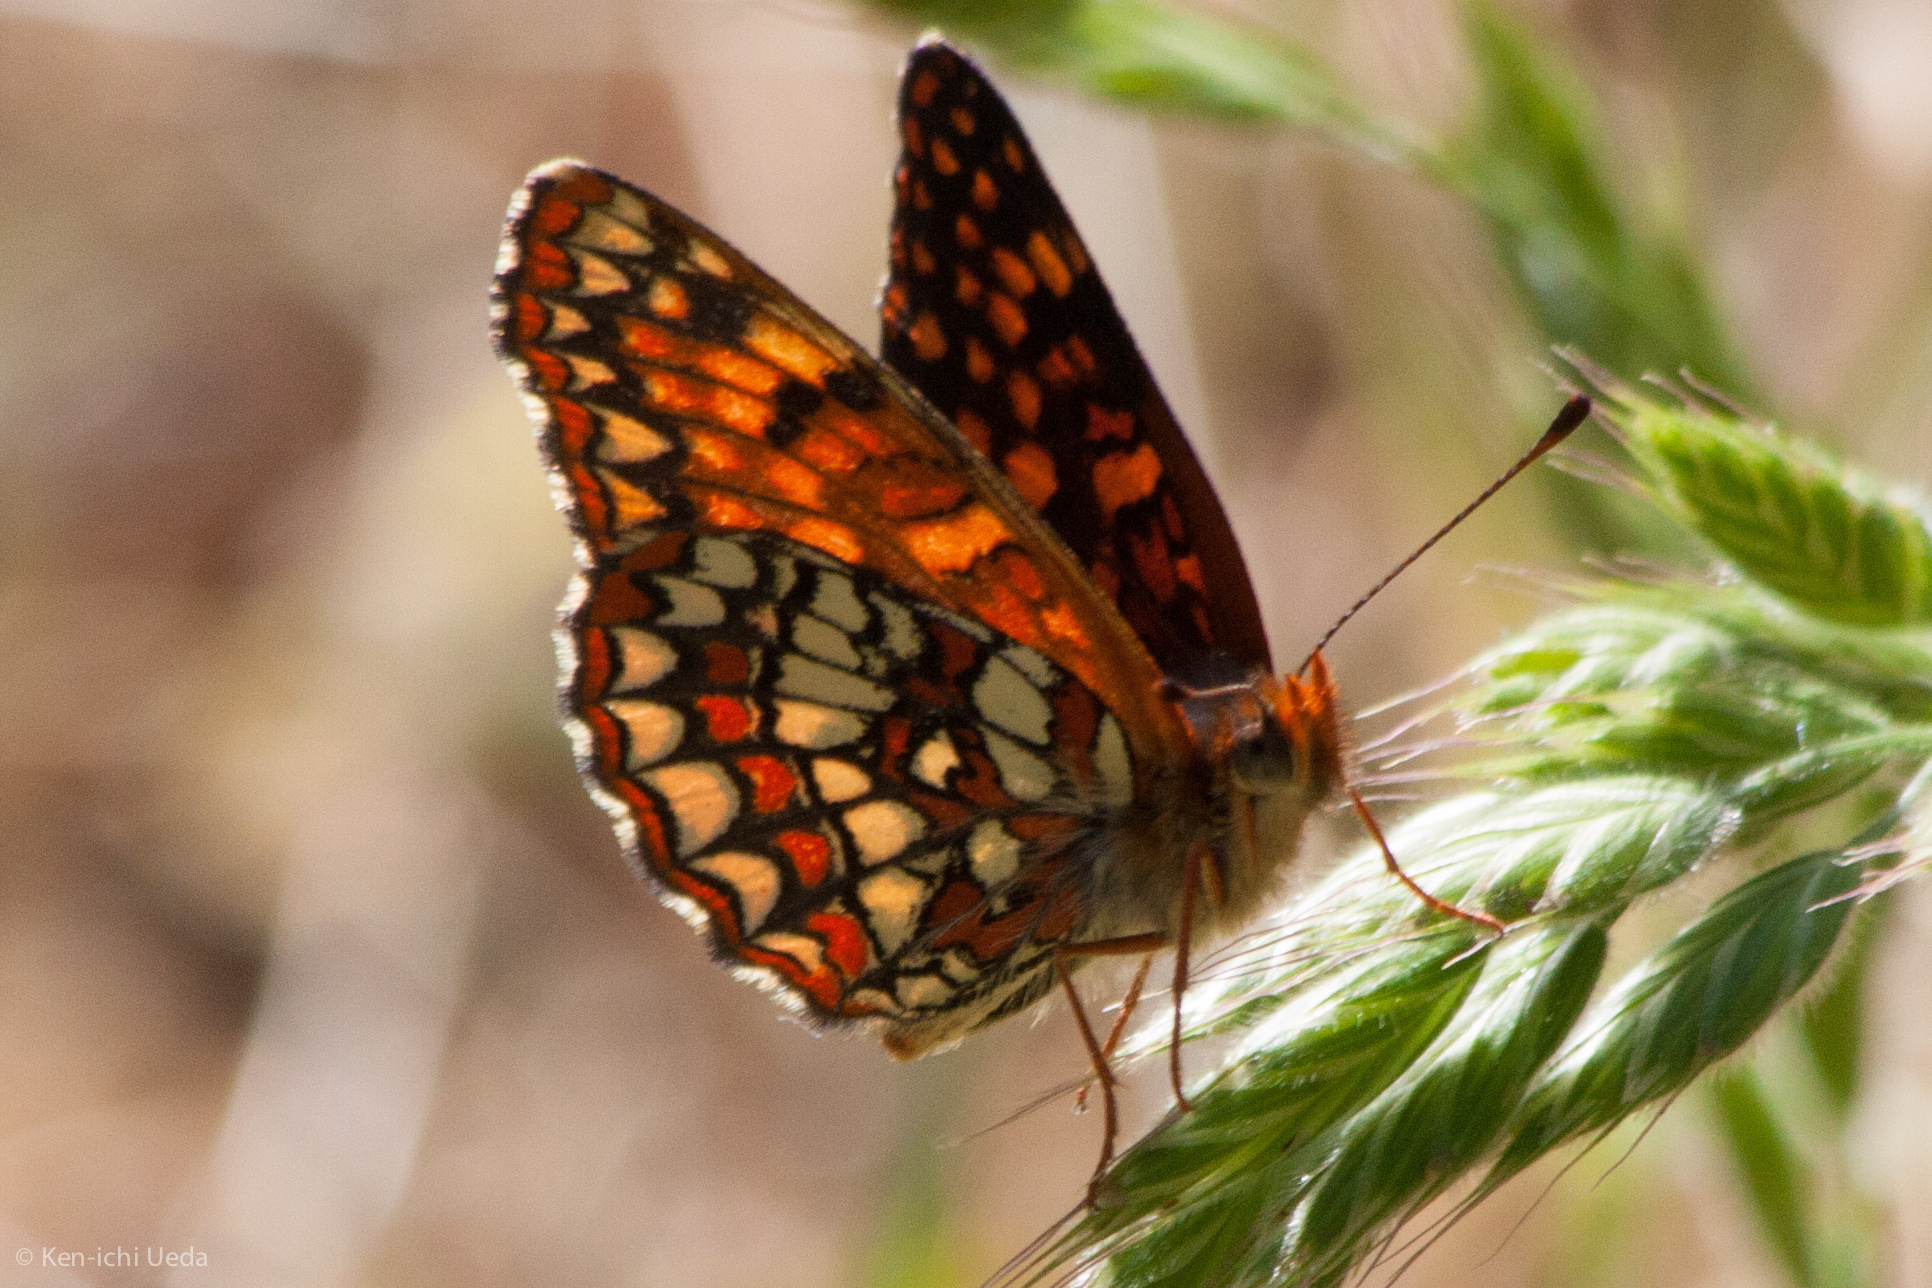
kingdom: Animalia
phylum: Arthropoda
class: Insecta
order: Lepidoptera
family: Nymphalidae
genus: Chlosyne
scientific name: Chlosyne palla
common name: Northern checkerspot
